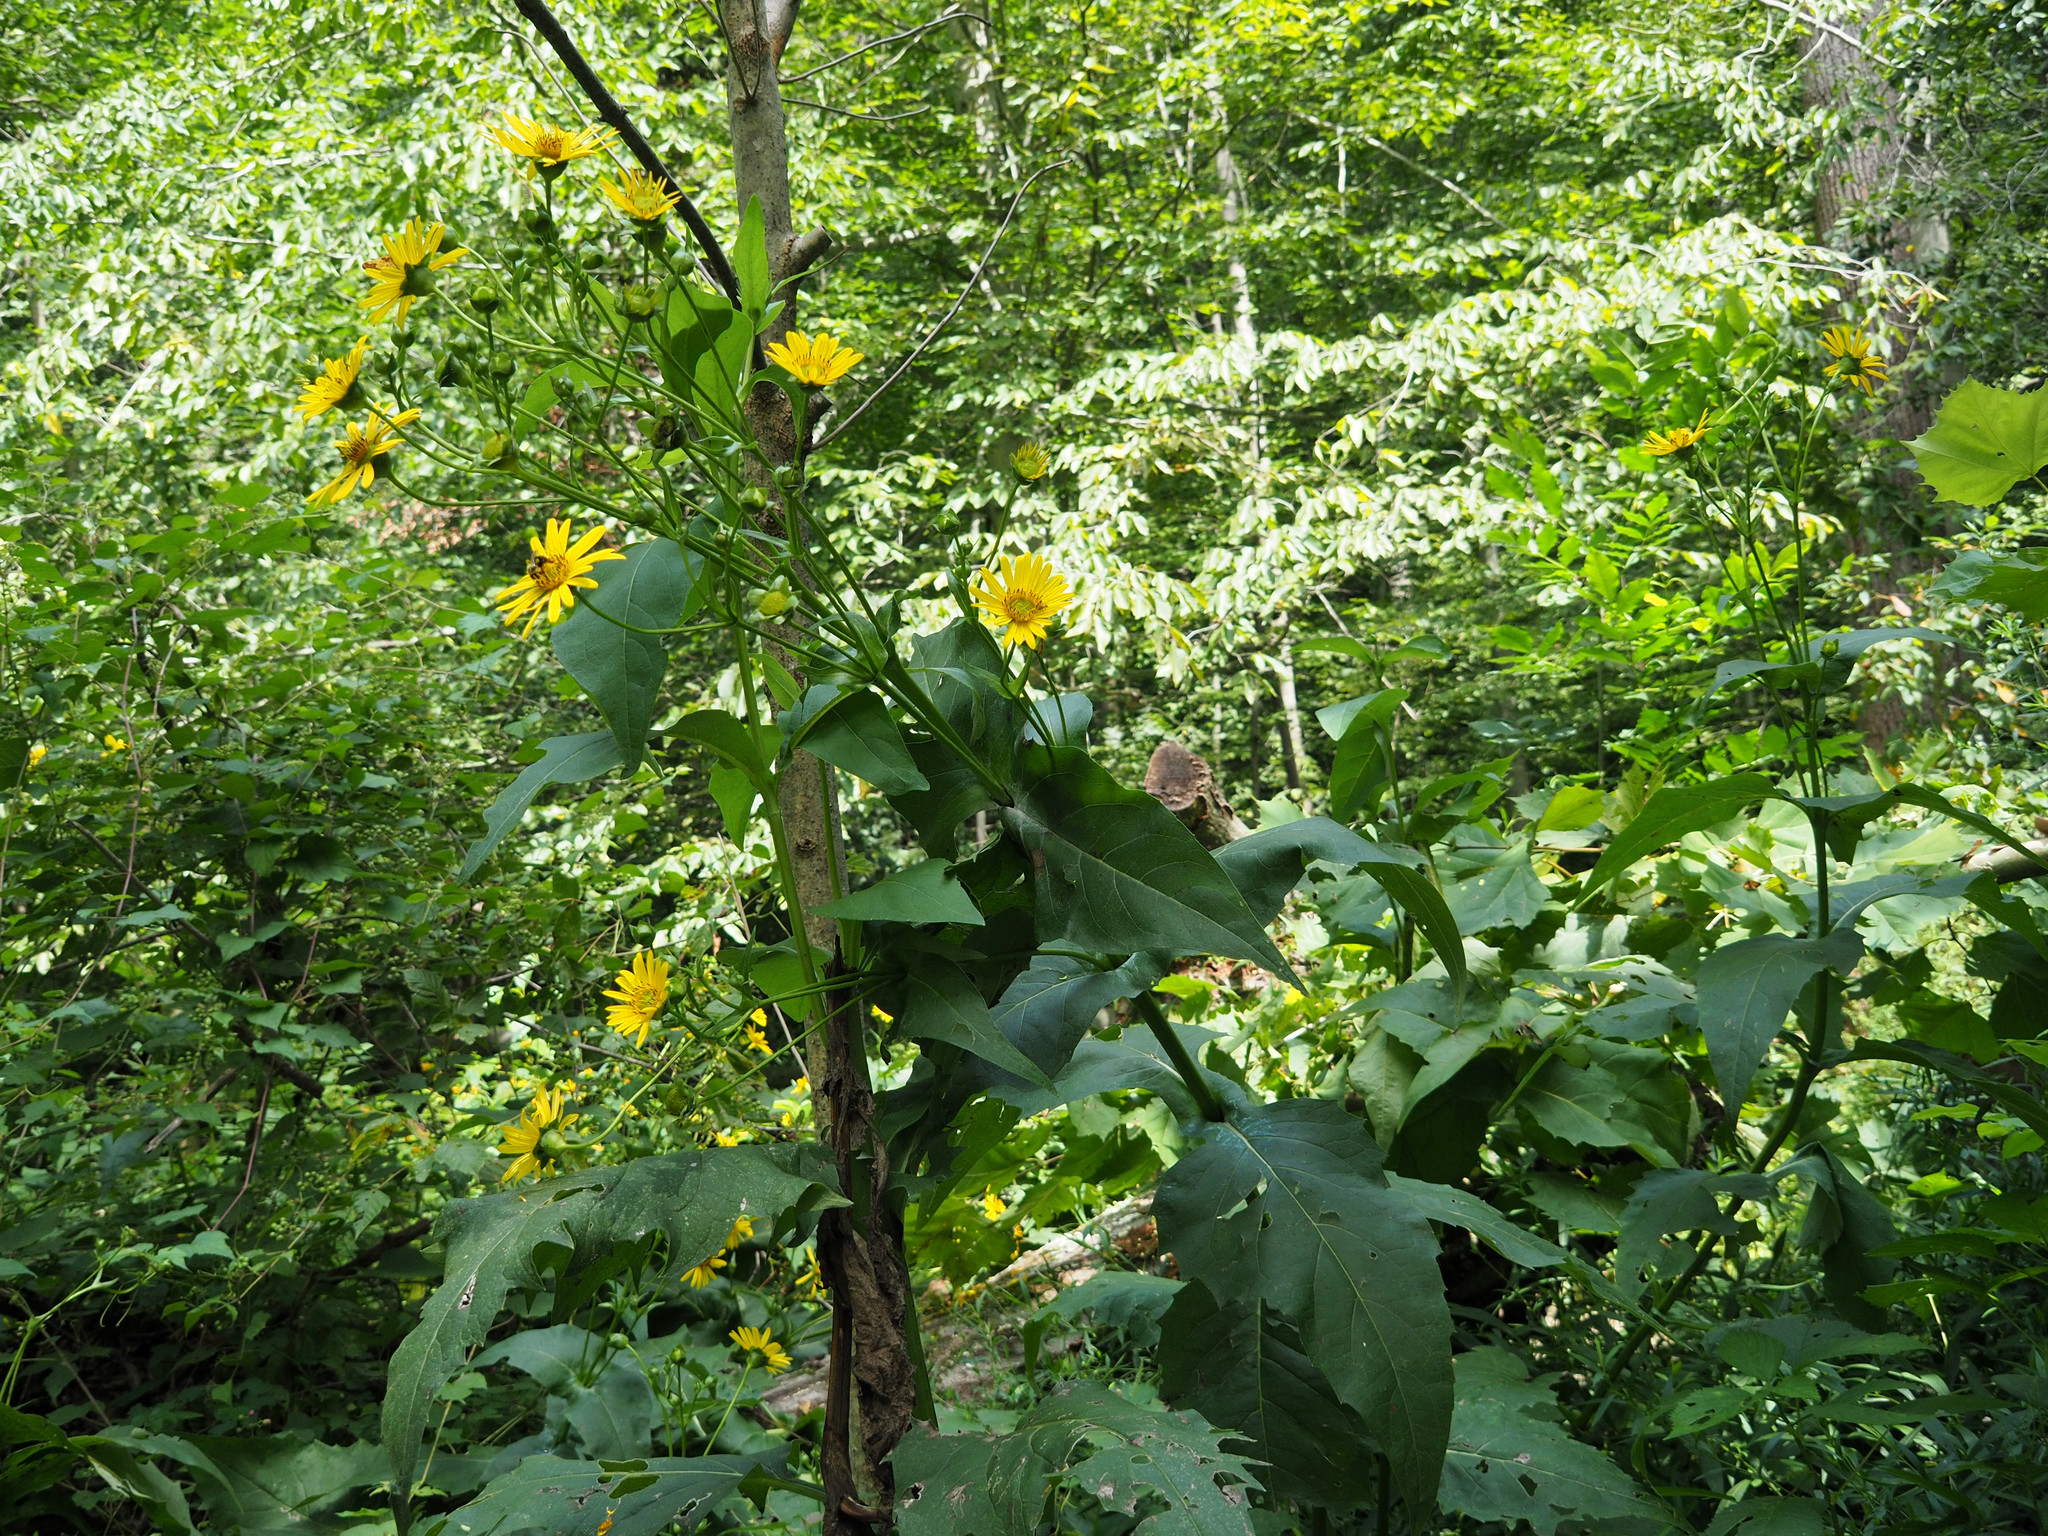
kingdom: Plantae
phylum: Tracheophyta
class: Magnoliopsida
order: Asterales
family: Asteraceae
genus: Silphium
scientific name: Silphium perfoliatum
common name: Cup-plant
